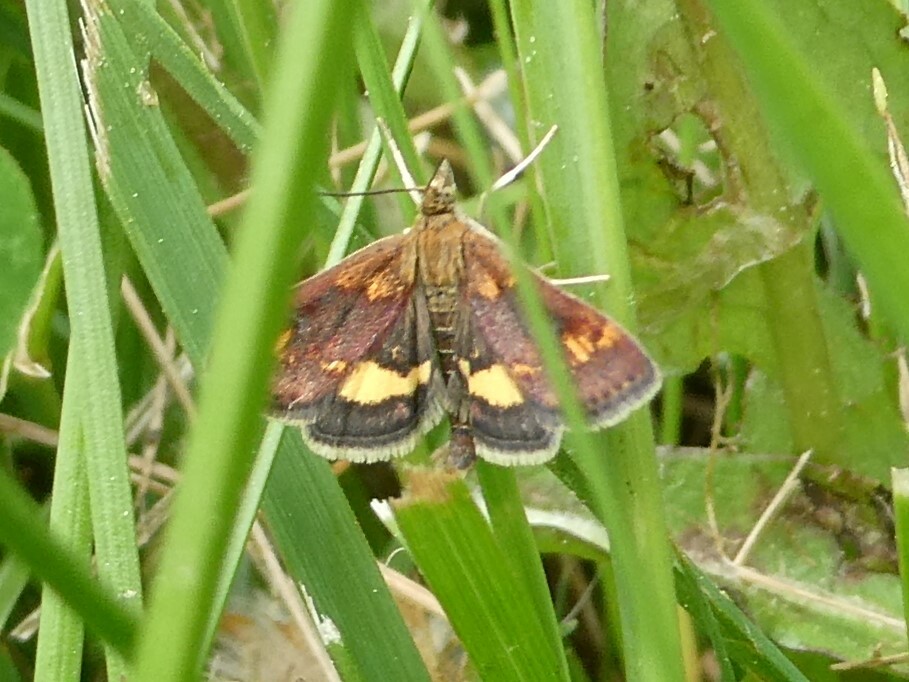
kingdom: Animalia
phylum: Arthropoda
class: Insecta
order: Lepidoptera
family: Crambidae
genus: Pyrausta
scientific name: Pyrausta orphisalis
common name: Orange mint moth
